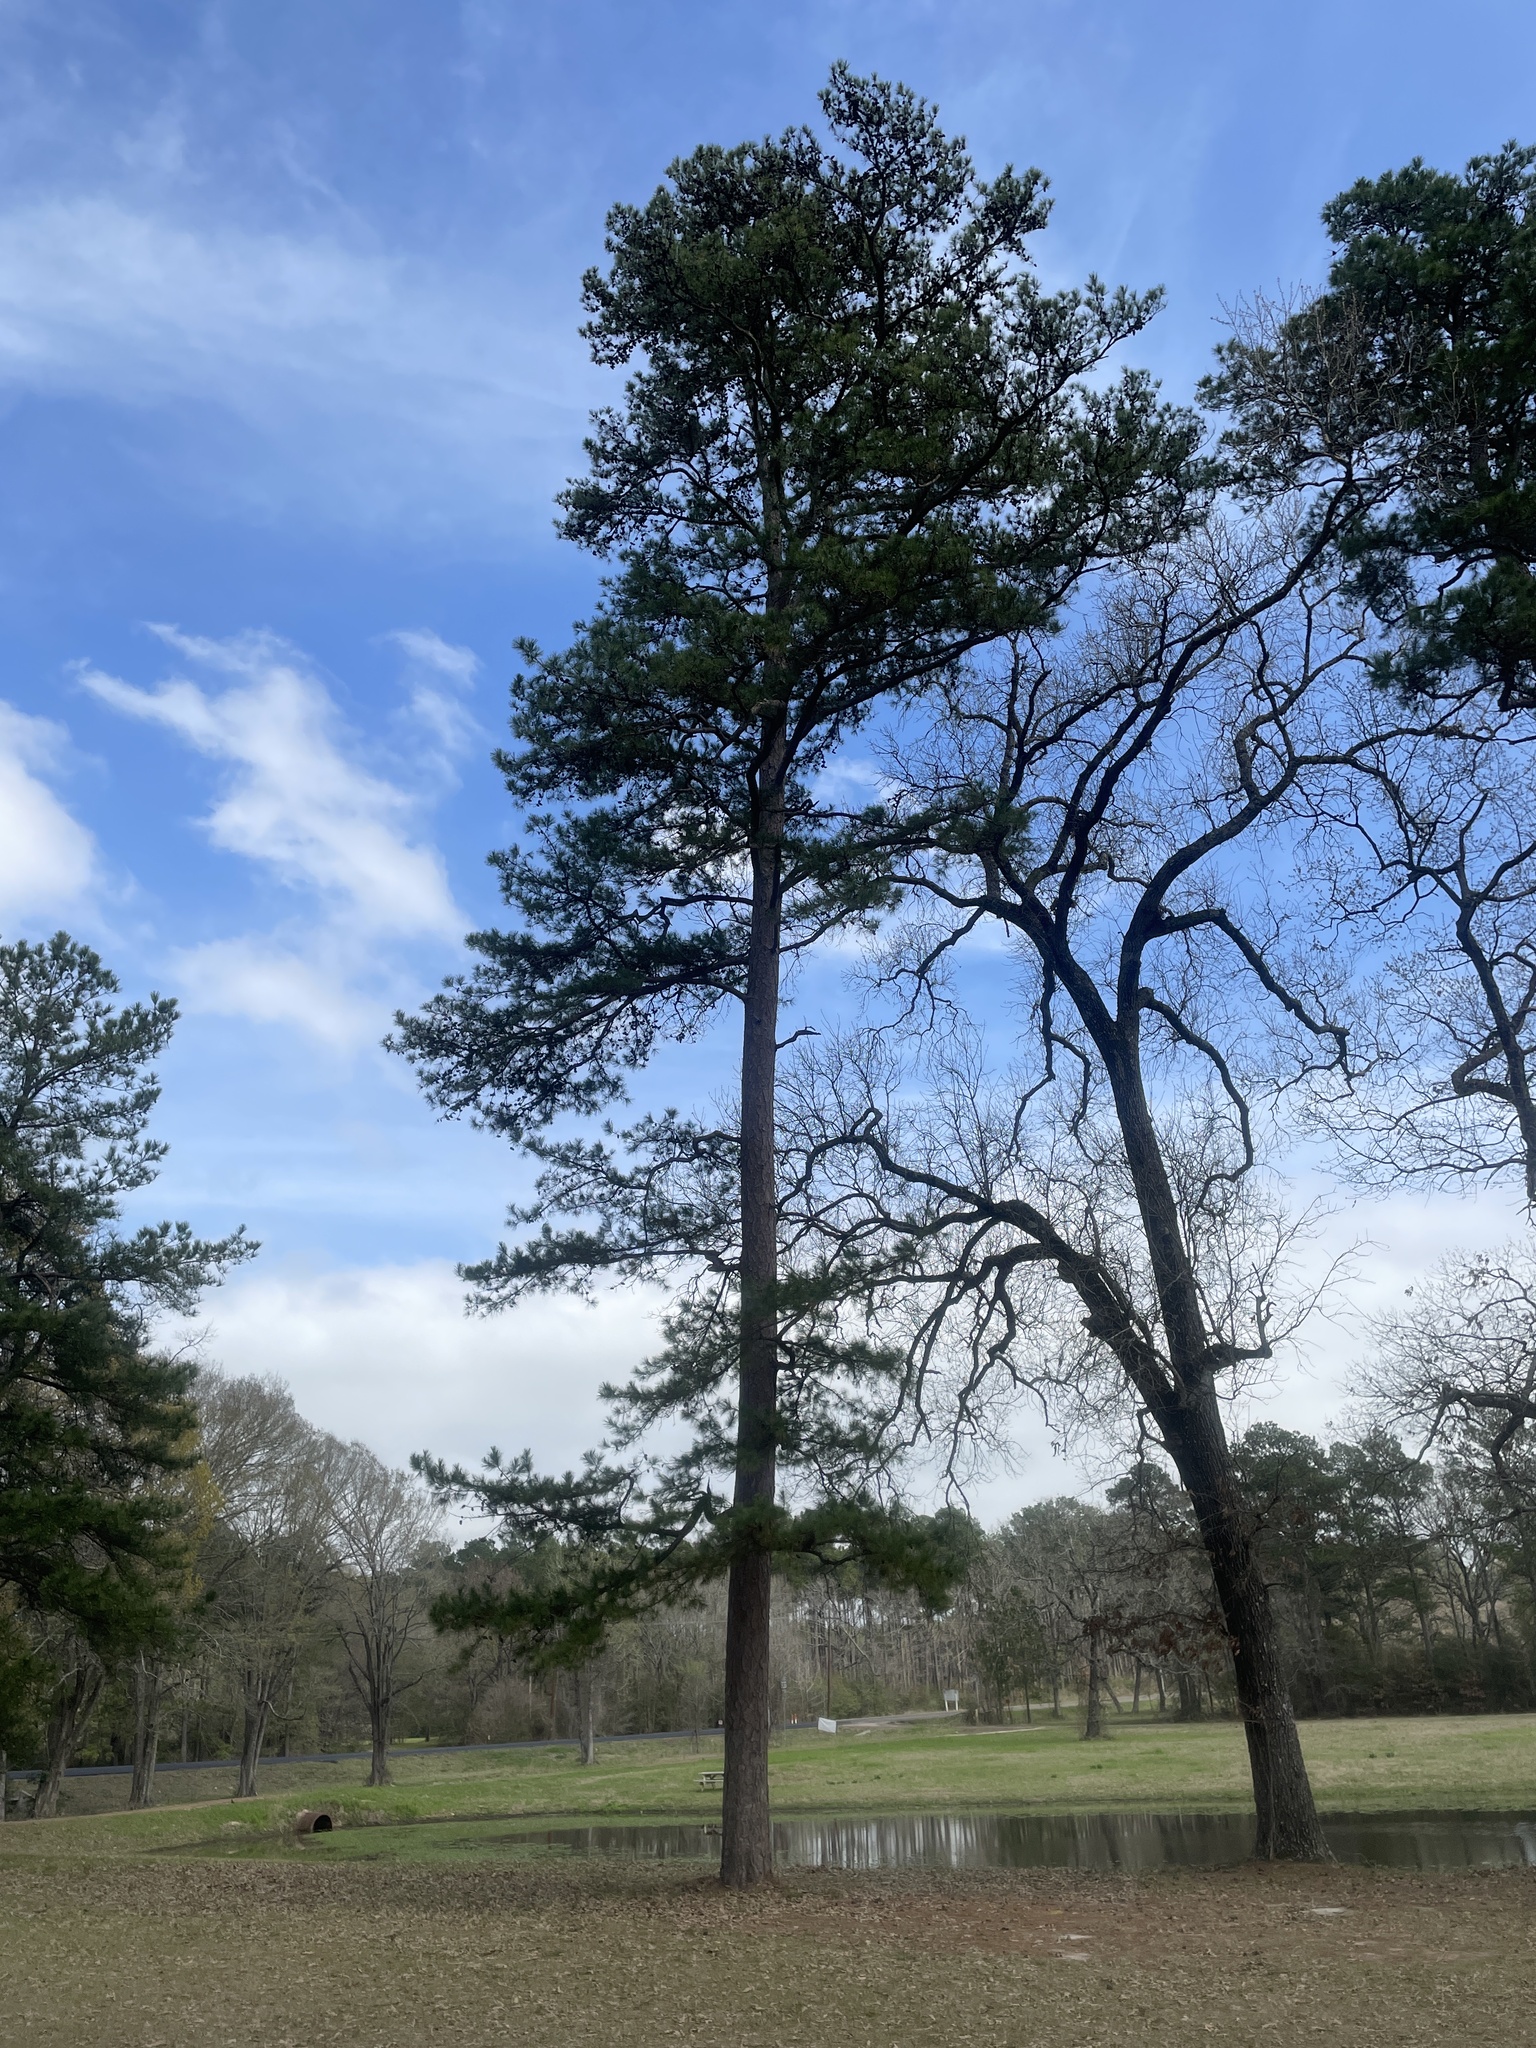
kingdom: Plantae
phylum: Tracheophyta
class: Pinopsida
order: Pinales
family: Pinaceae
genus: Pinus
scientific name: Pinus taeda
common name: Loblolly pine
